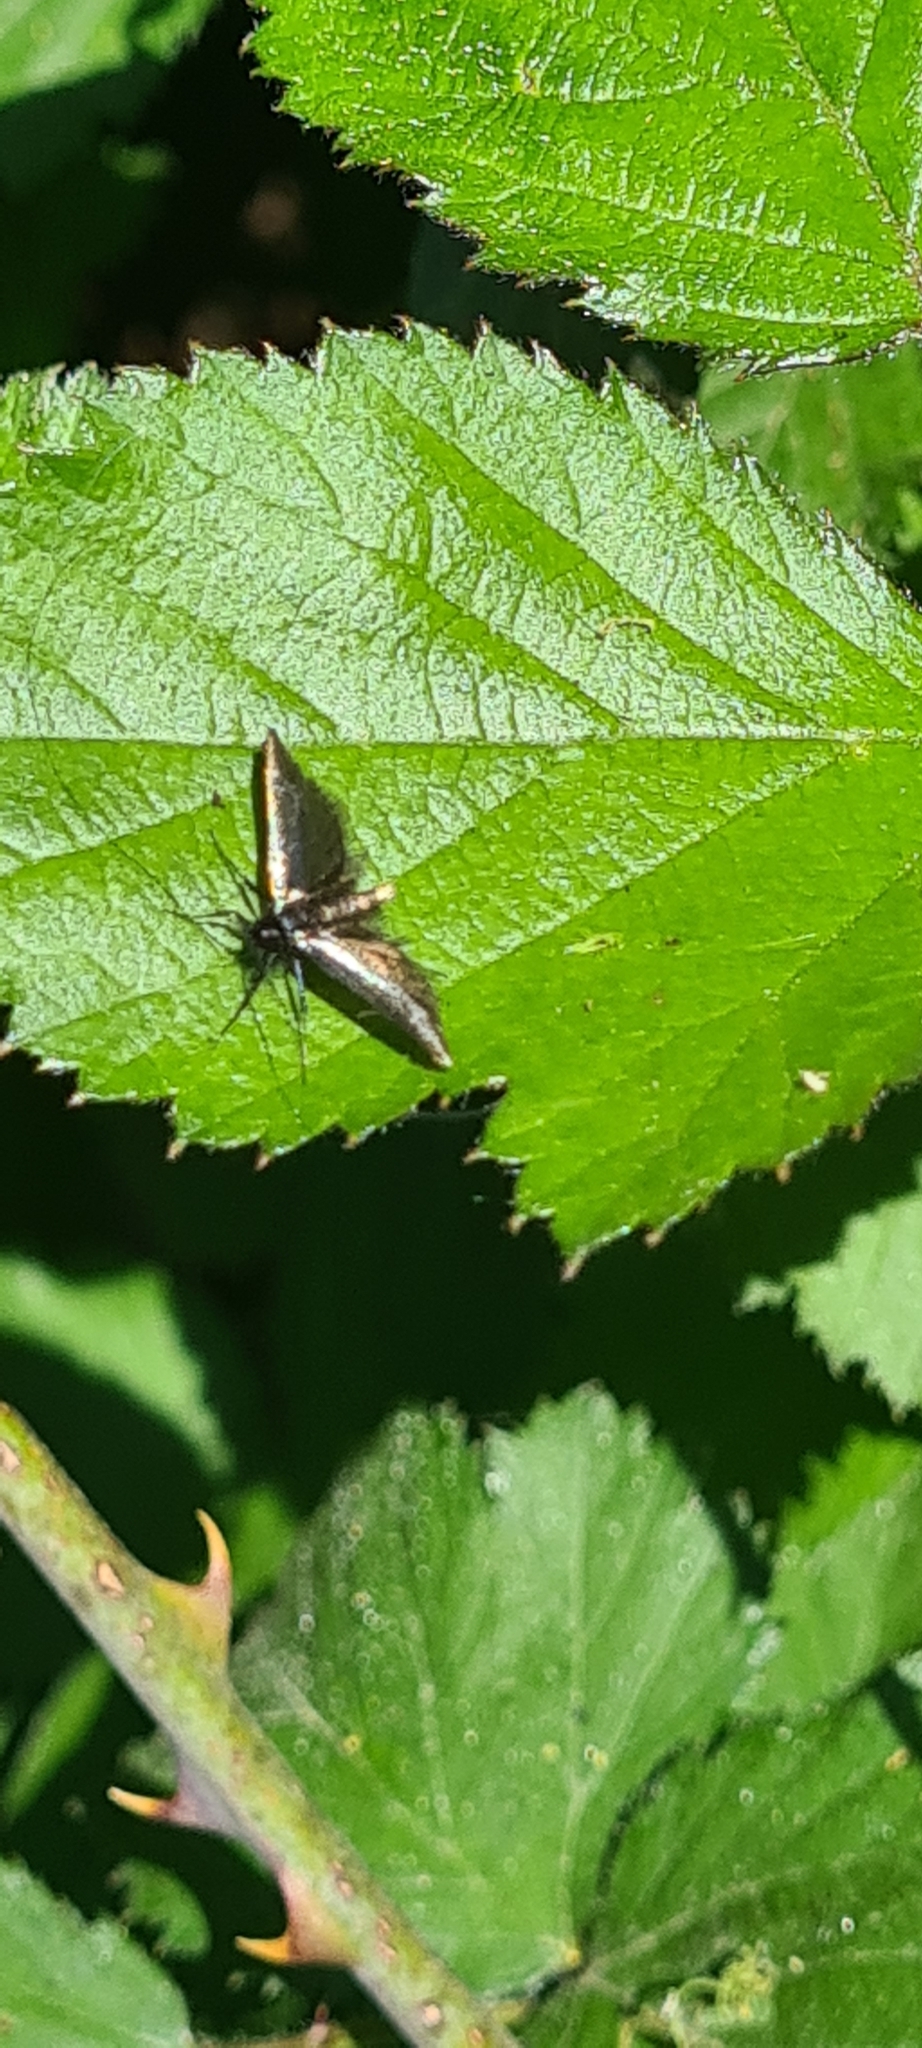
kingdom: Animalia
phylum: Arthropoda
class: Insecta
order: Lepidoptera
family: Adelidae
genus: Adela
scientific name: Adela viridella
